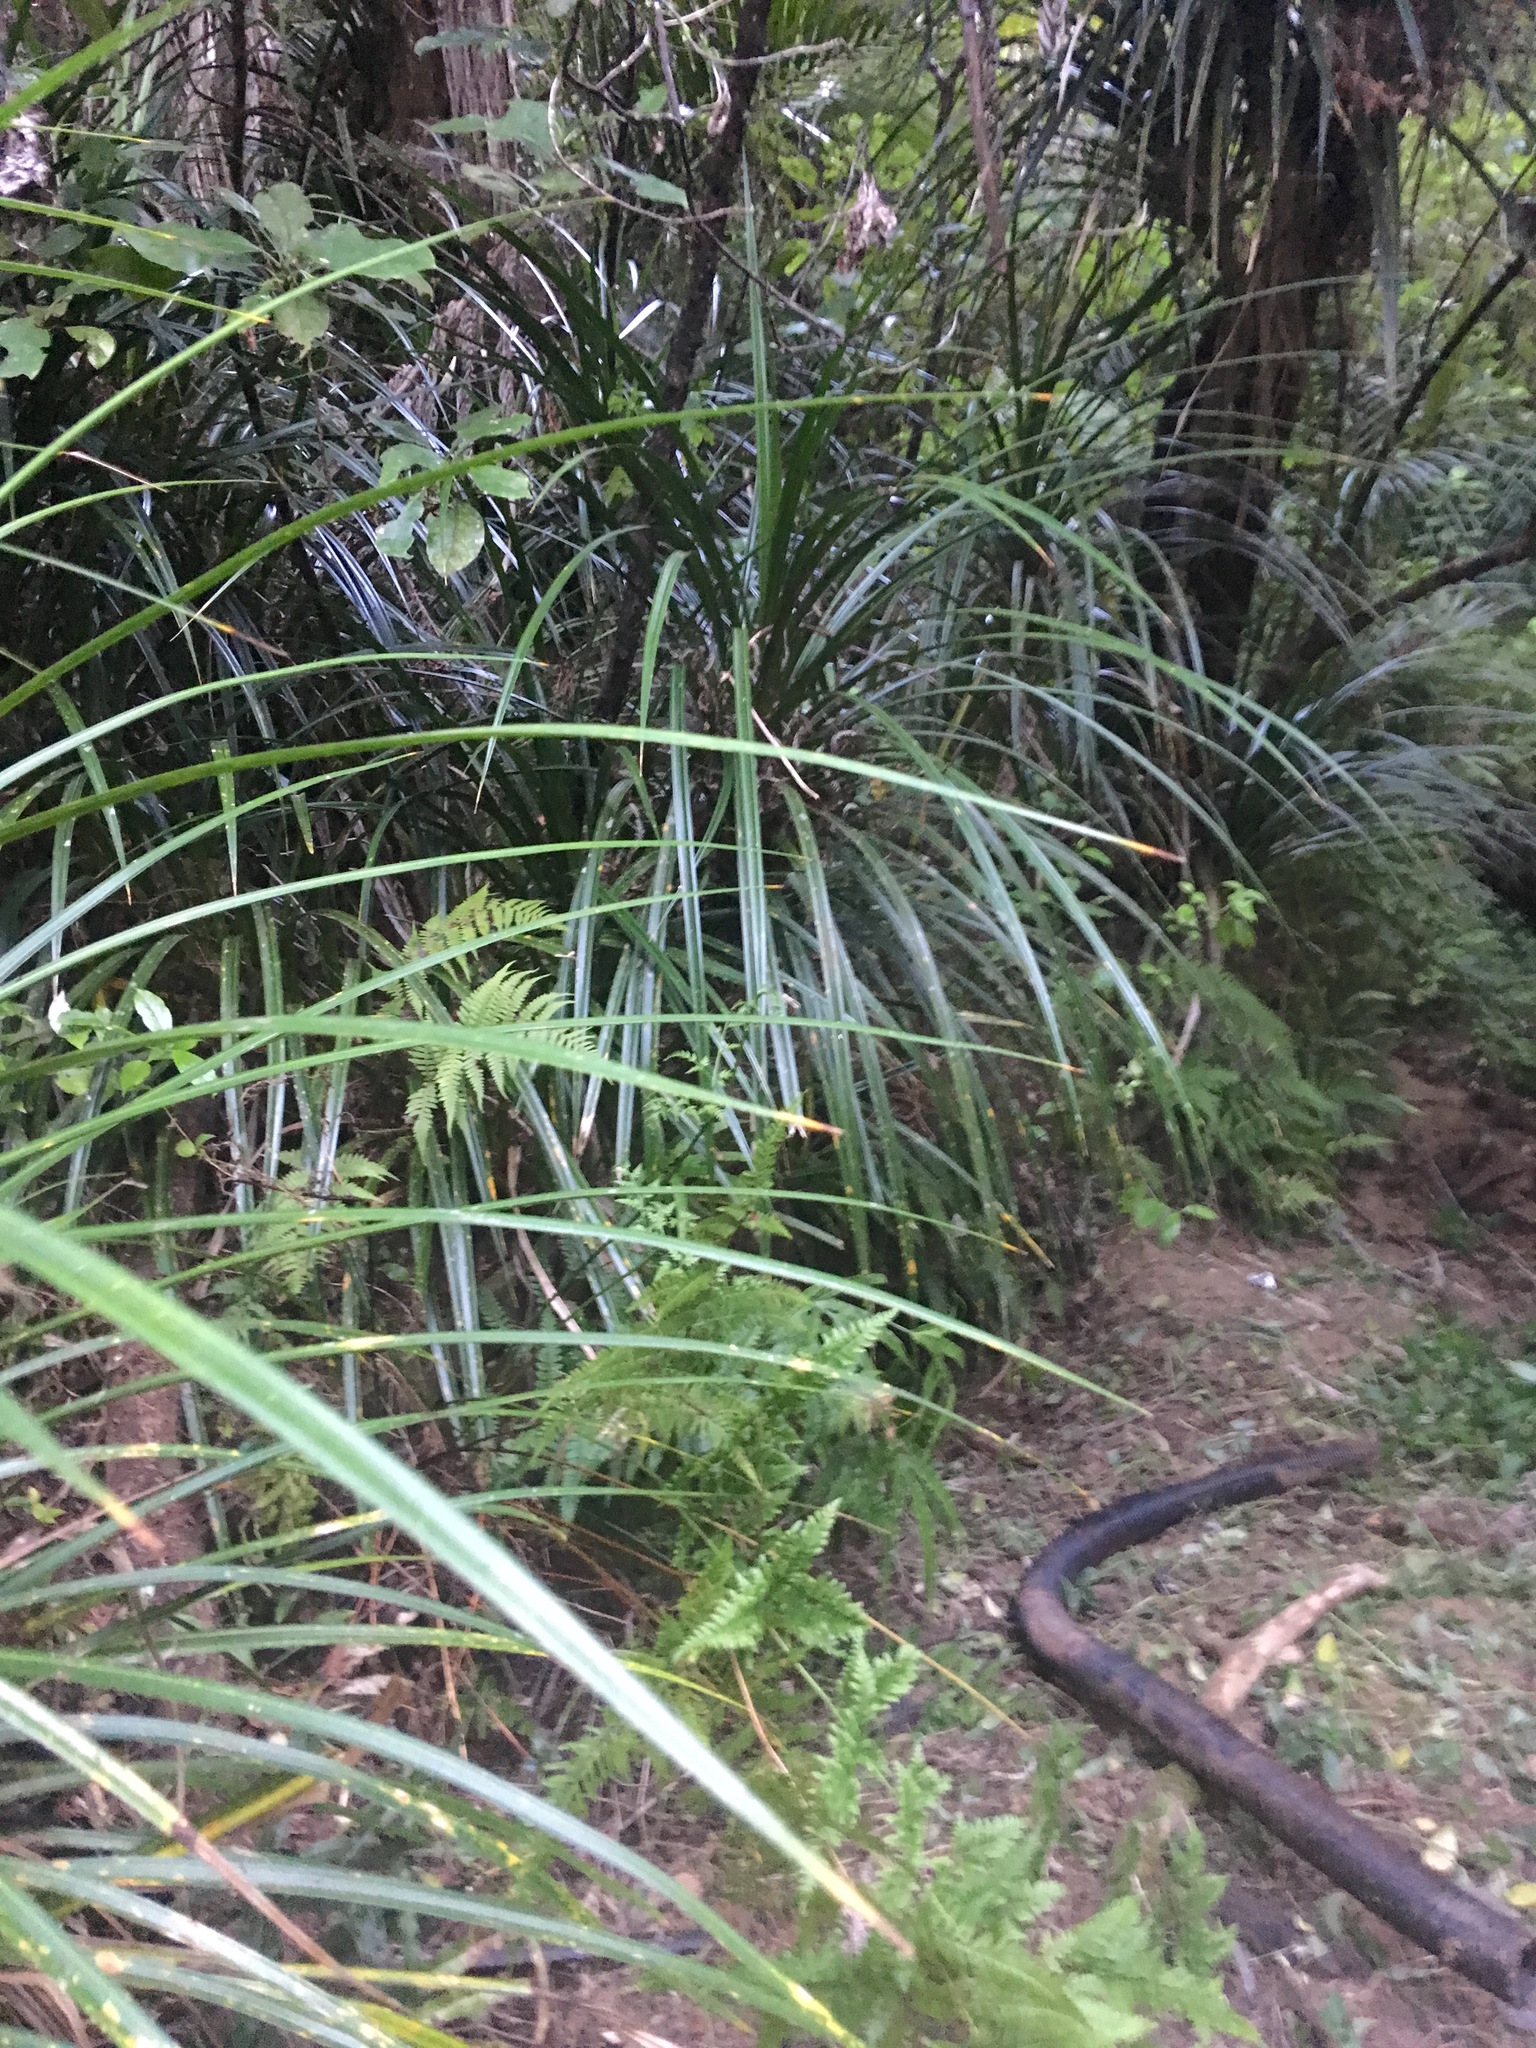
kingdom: Plantae
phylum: Tracheophyta
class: Liliopsida
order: Pandanales
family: Pandanaceae
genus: Freycinetia
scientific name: Freycinetia banksii
